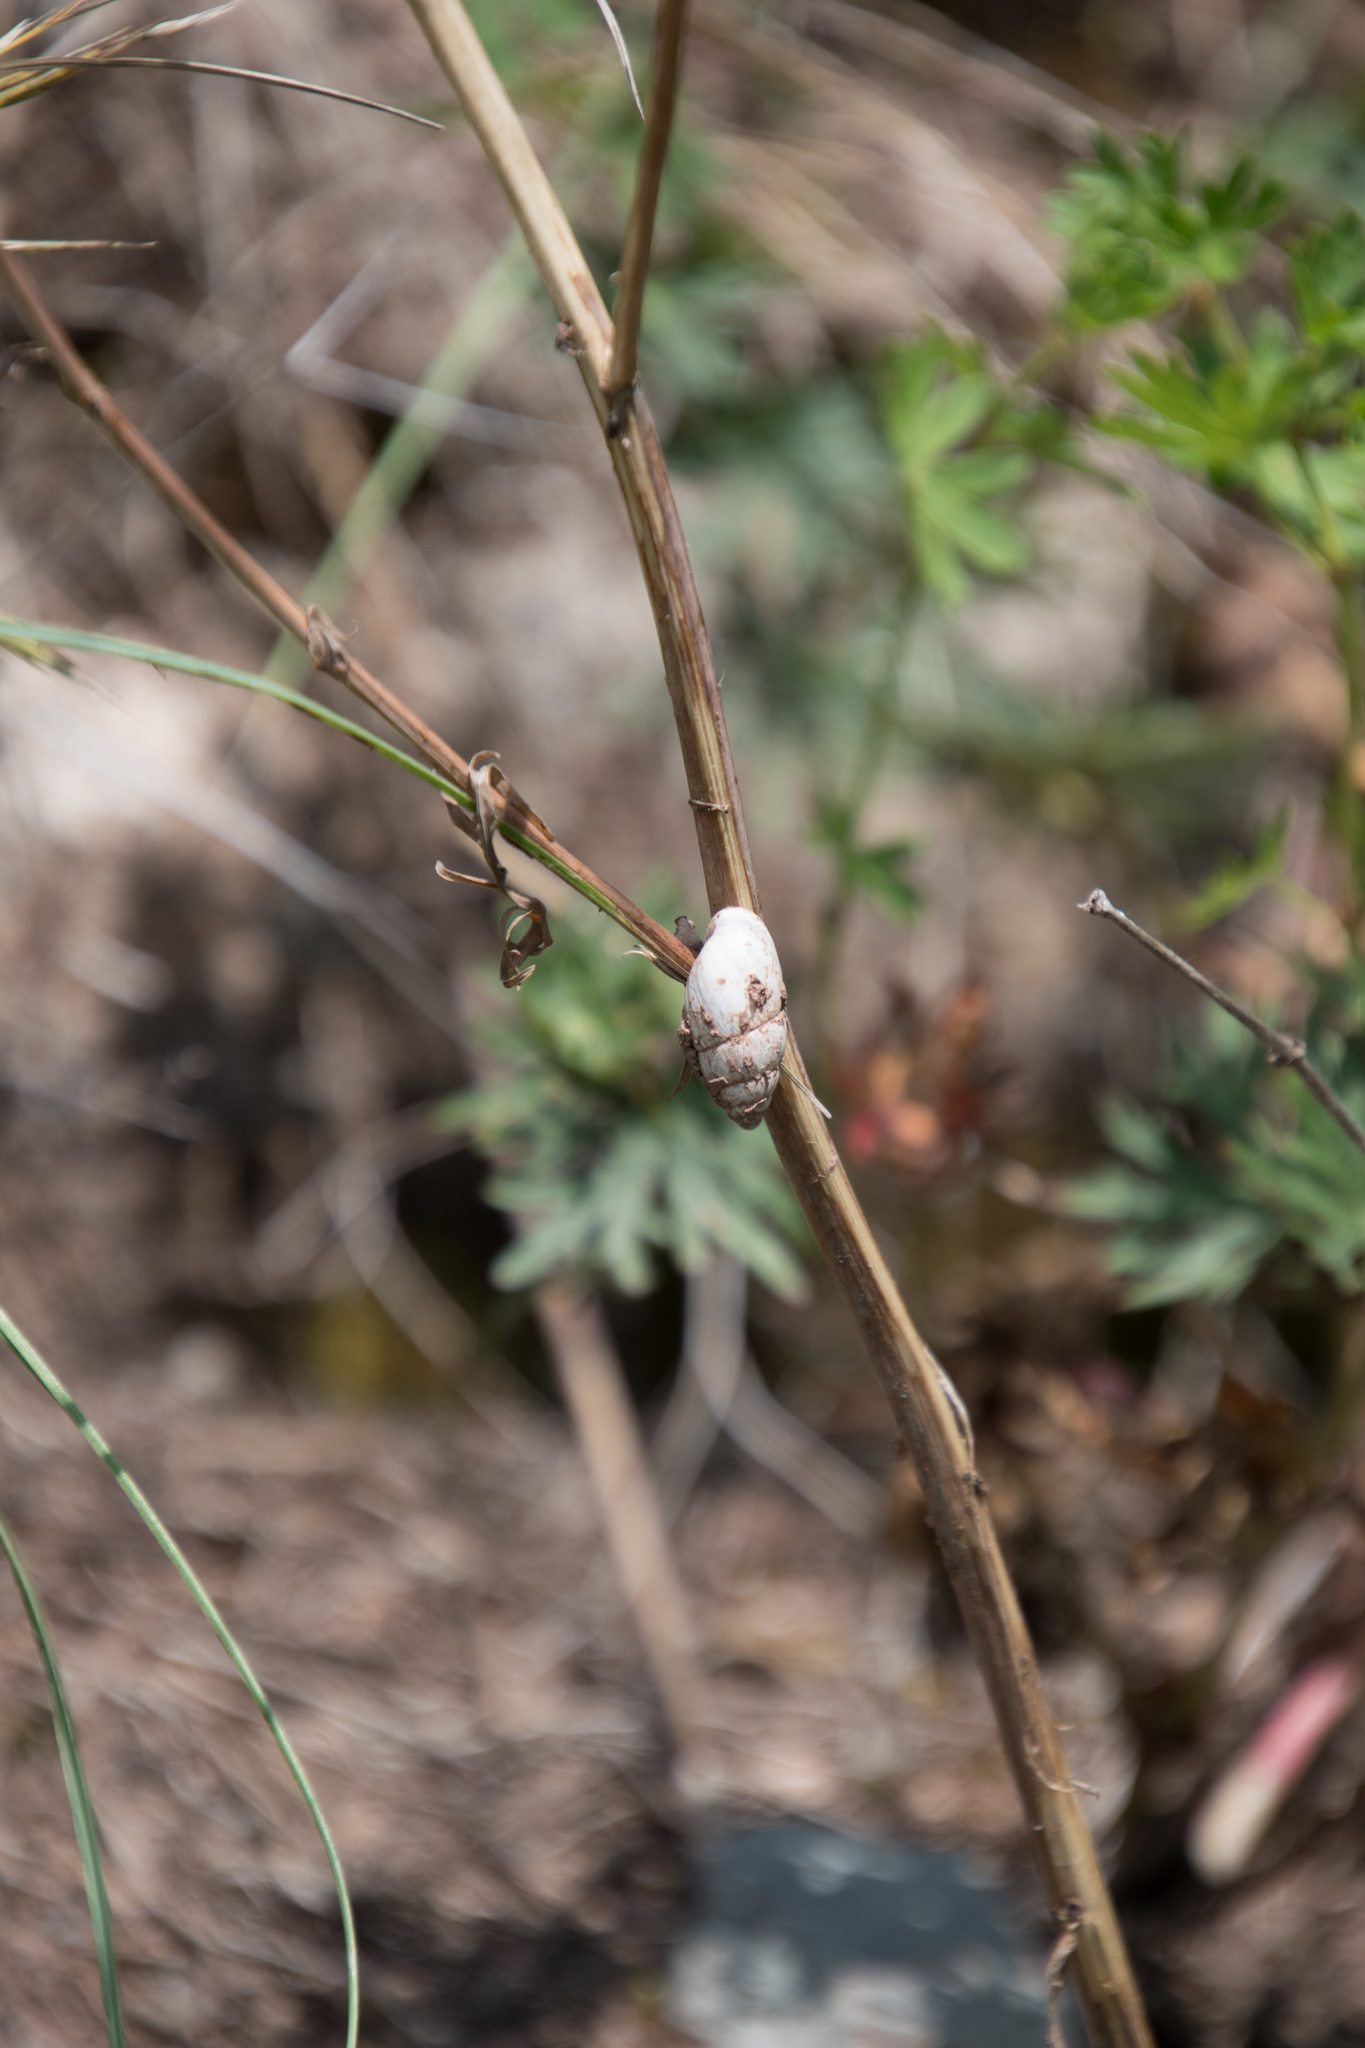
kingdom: Animalia
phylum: Mollusca
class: Gastropoda
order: Stylommatophora
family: Enidae
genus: Zebrina
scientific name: Zebrina detrita
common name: Large bulin
